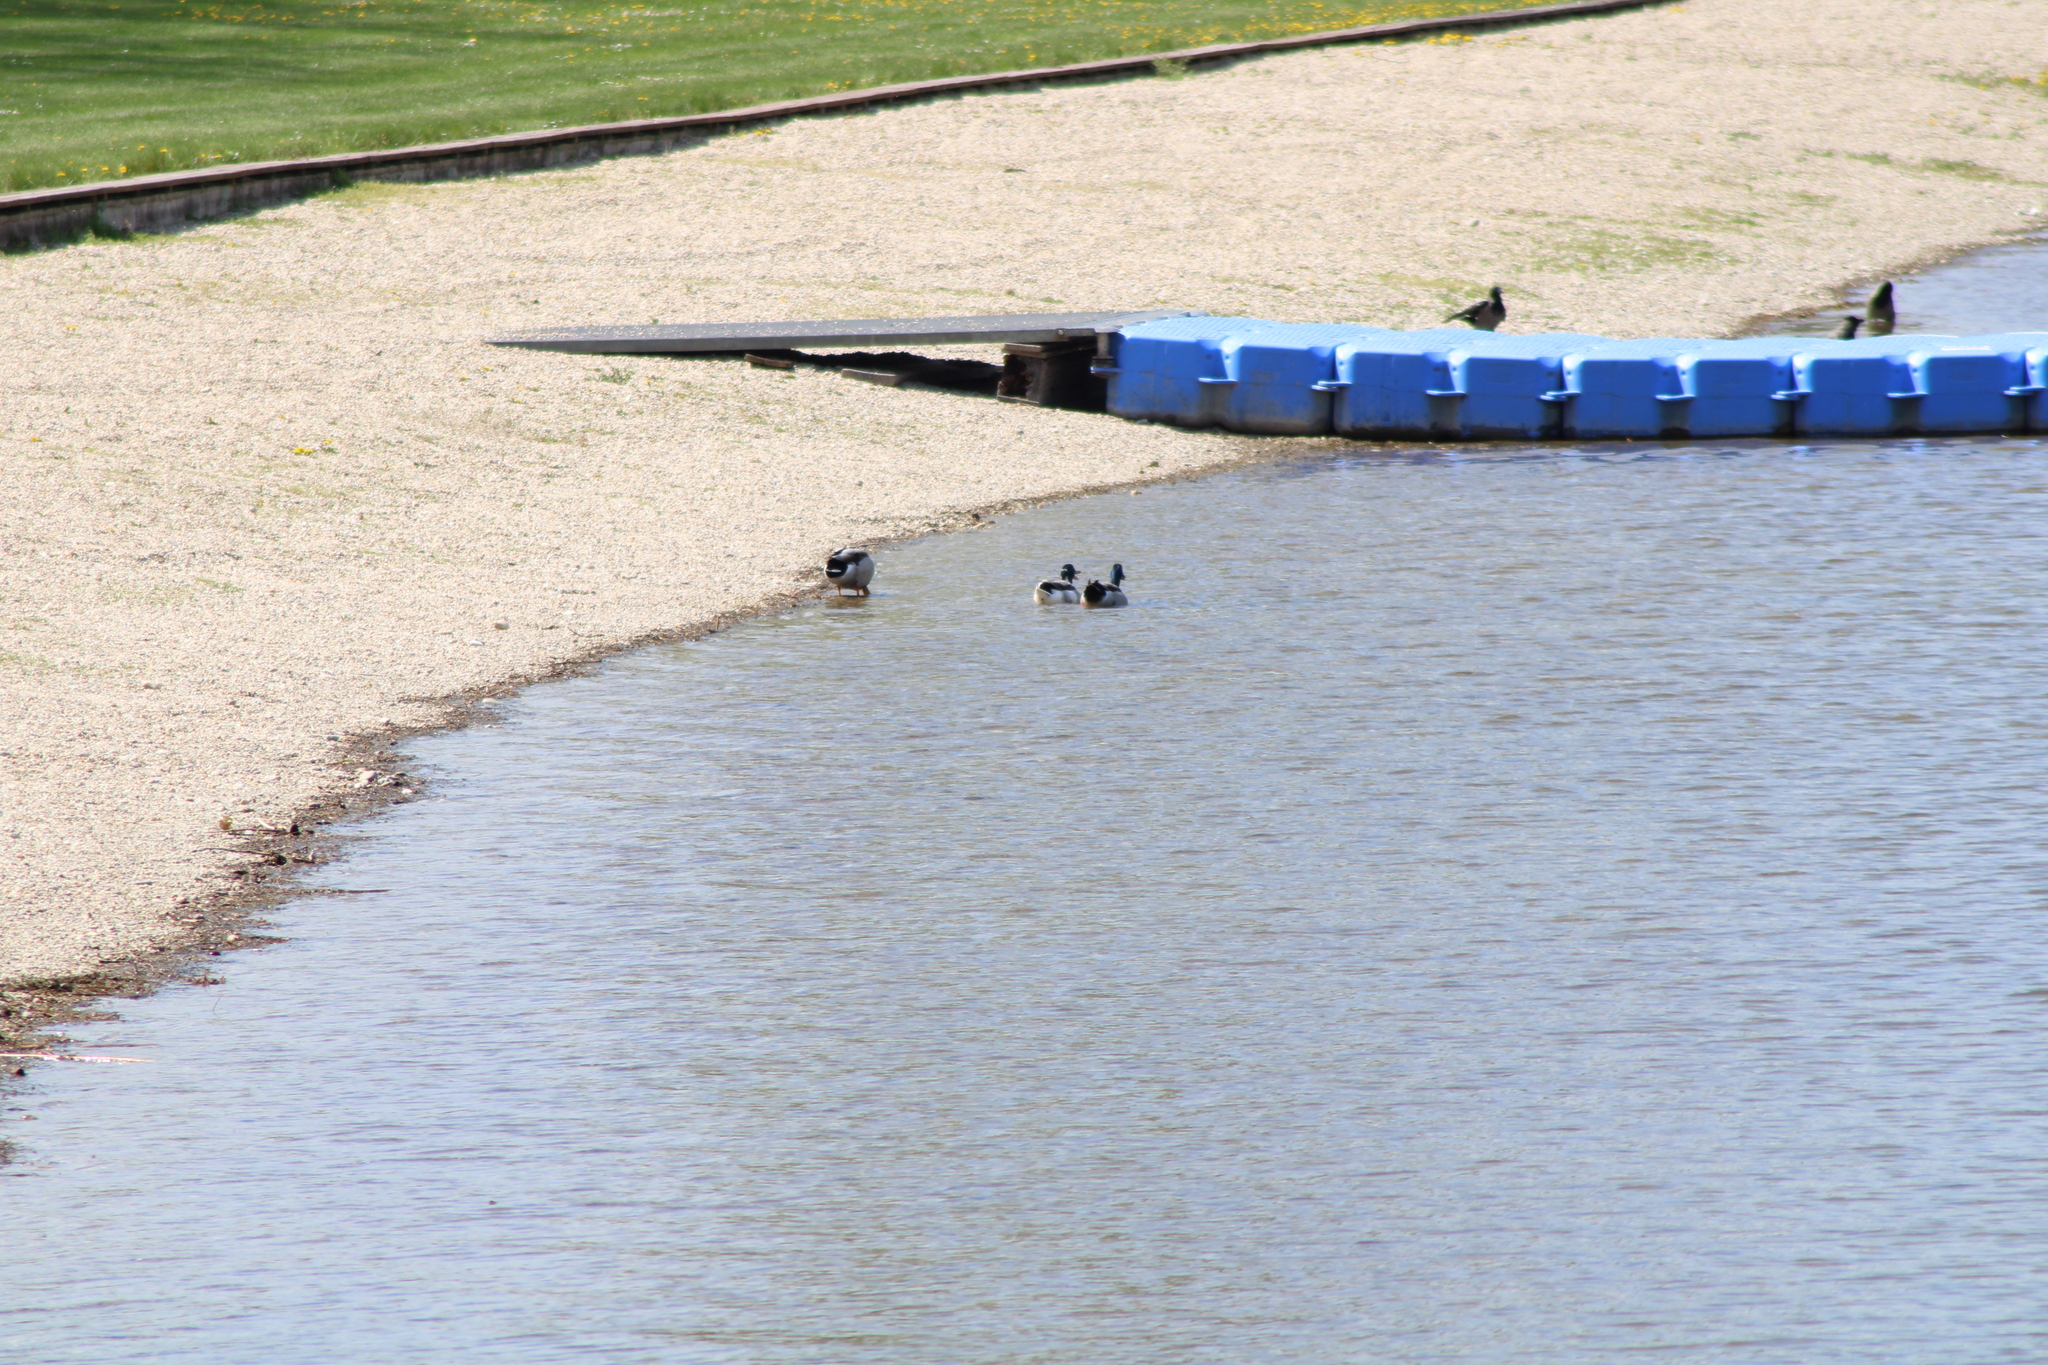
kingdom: Animalia
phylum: Chordata
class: Aves
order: Anseriformes
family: Anatidae
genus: Anas
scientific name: Anas platyrhynchos
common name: Mallard
